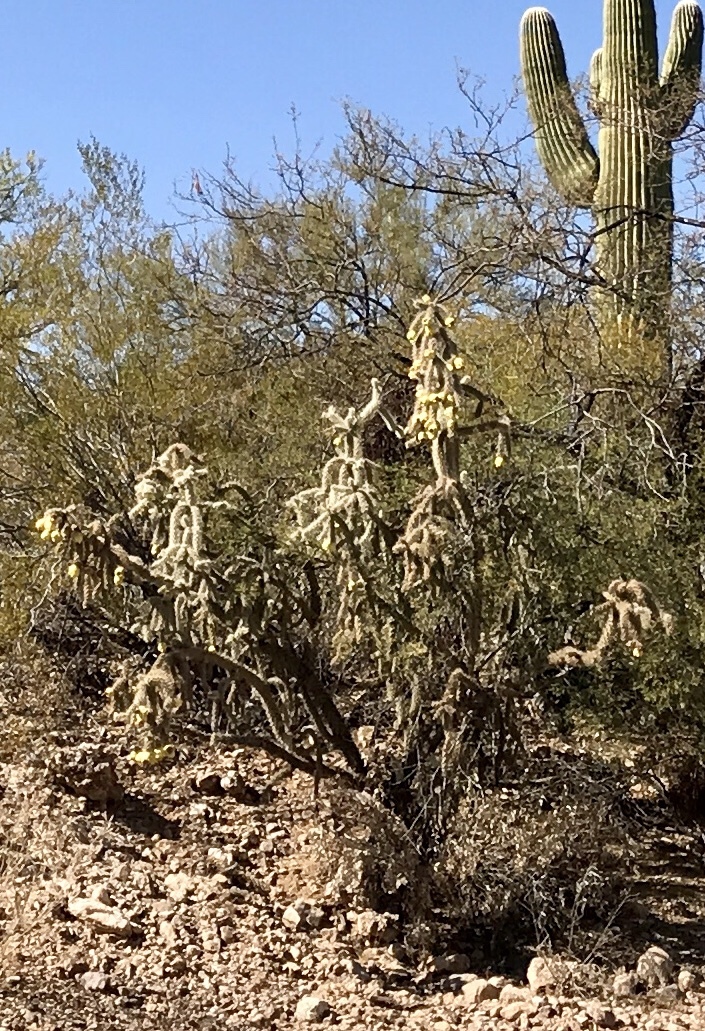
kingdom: Plantae
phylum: Tracheophyta
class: Magnoliopsida
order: Caryophyllales
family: Cactaceae
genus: Cylindropuntia
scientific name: Cylindropuntia acanthocarpa
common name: Buckhorn cholla
